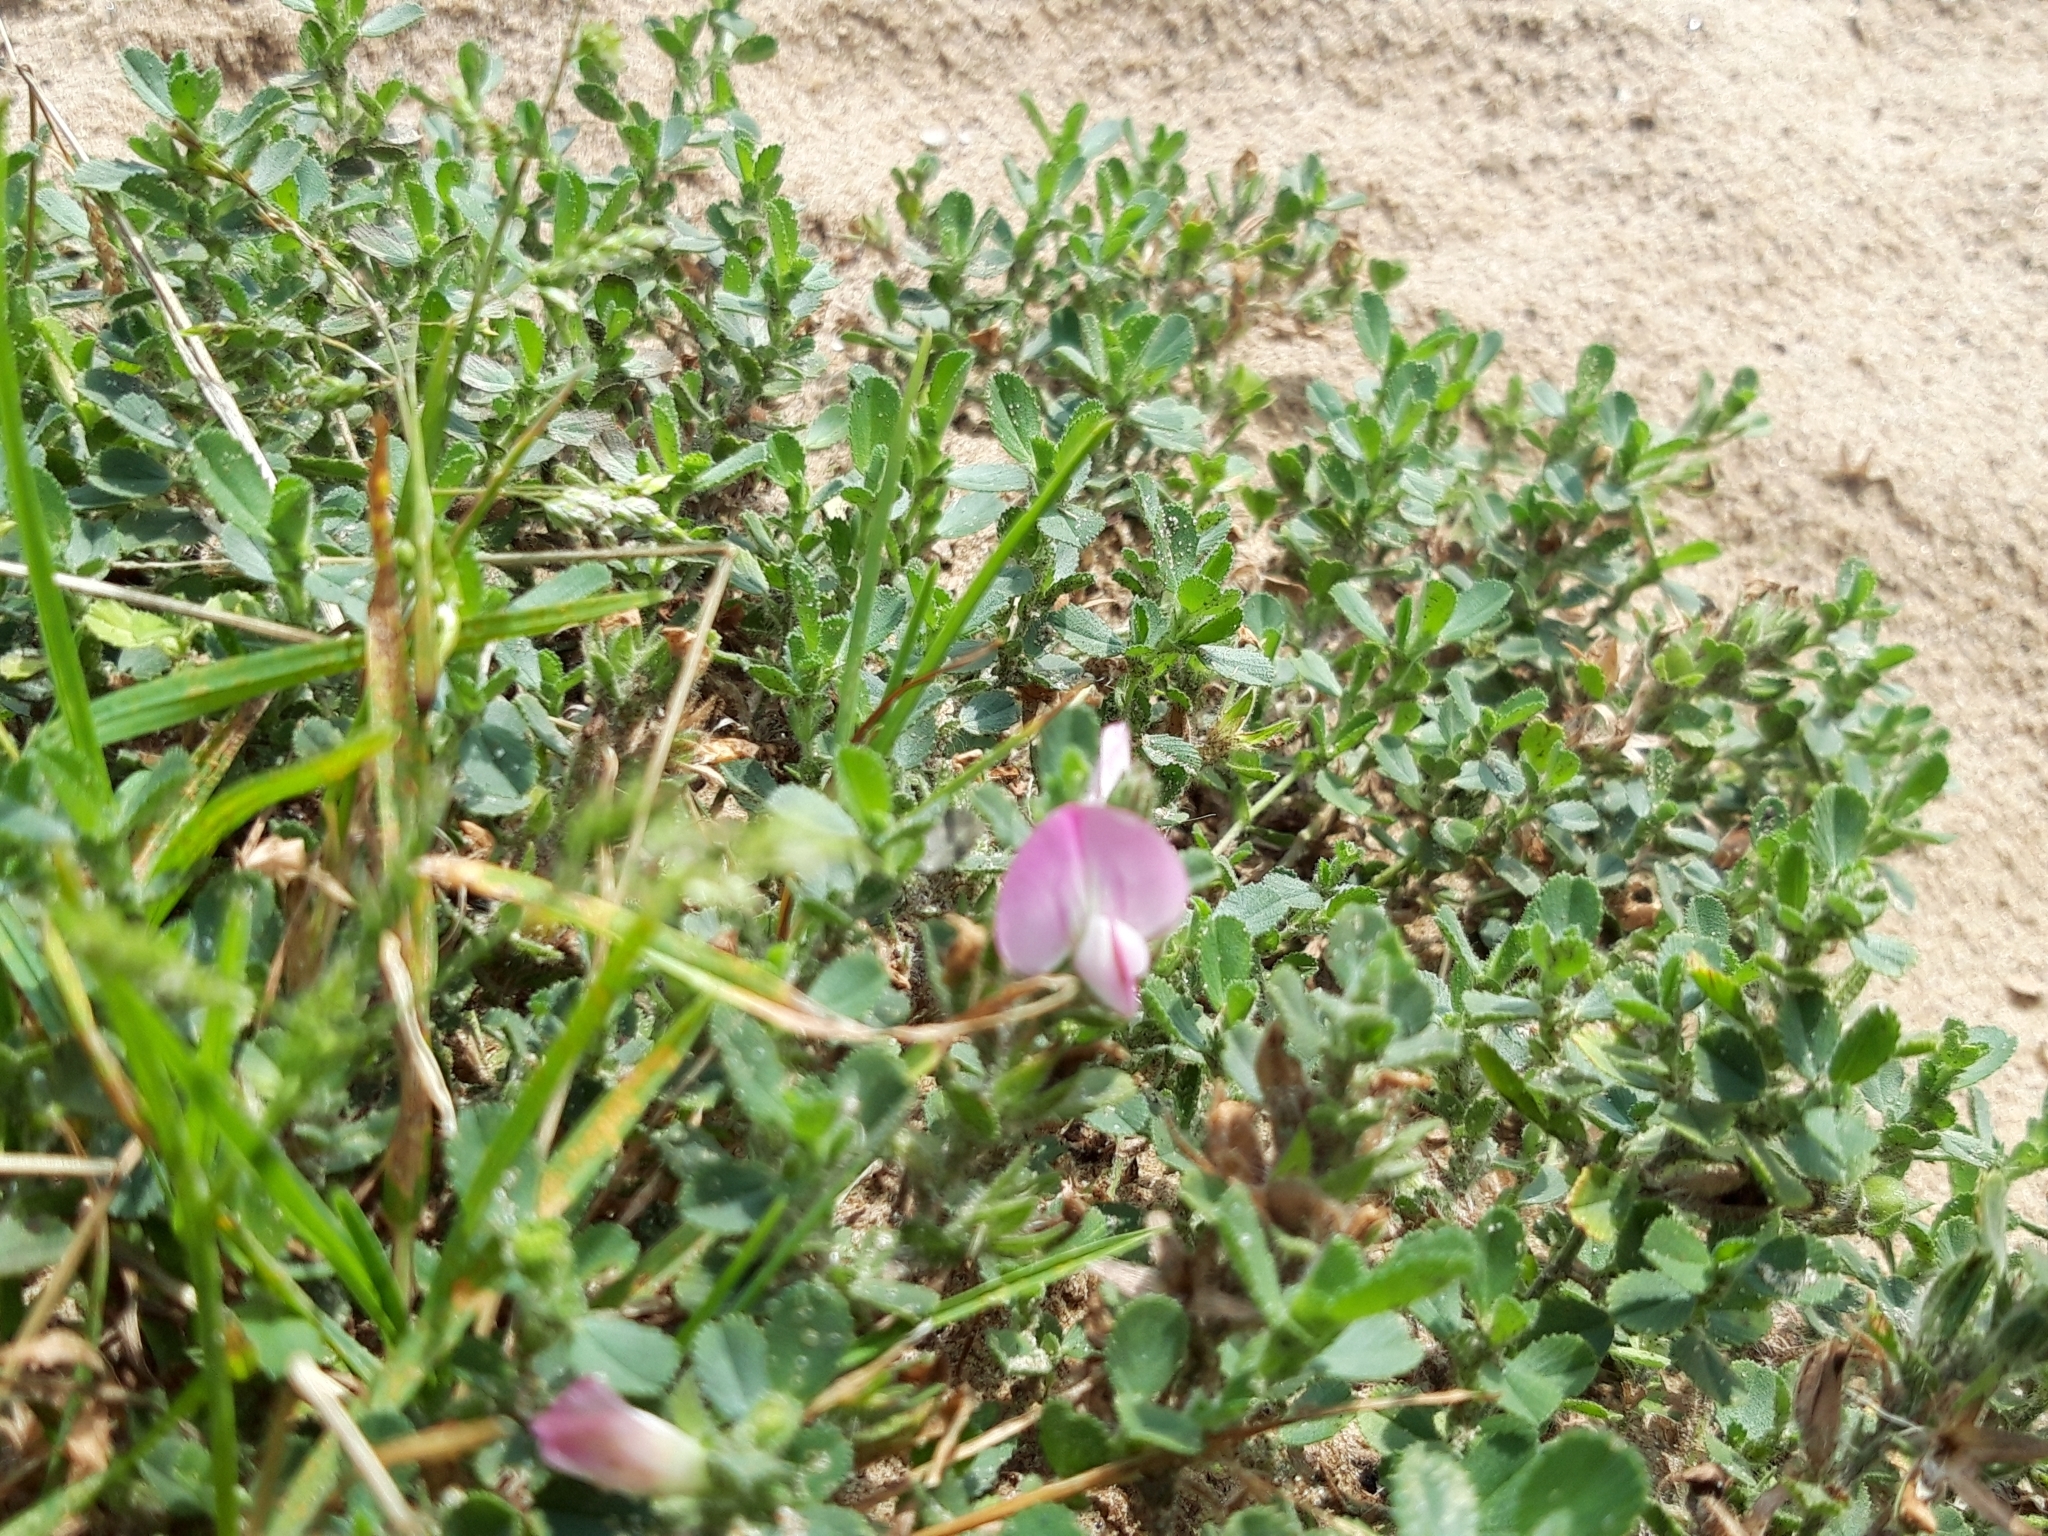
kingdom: Plantae
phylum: Tracheophyta
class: Magnoliopsida
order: Fabales
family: Fabaceae
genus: Ononis
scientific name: Ononis spinosa
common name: Spiny restharrow
